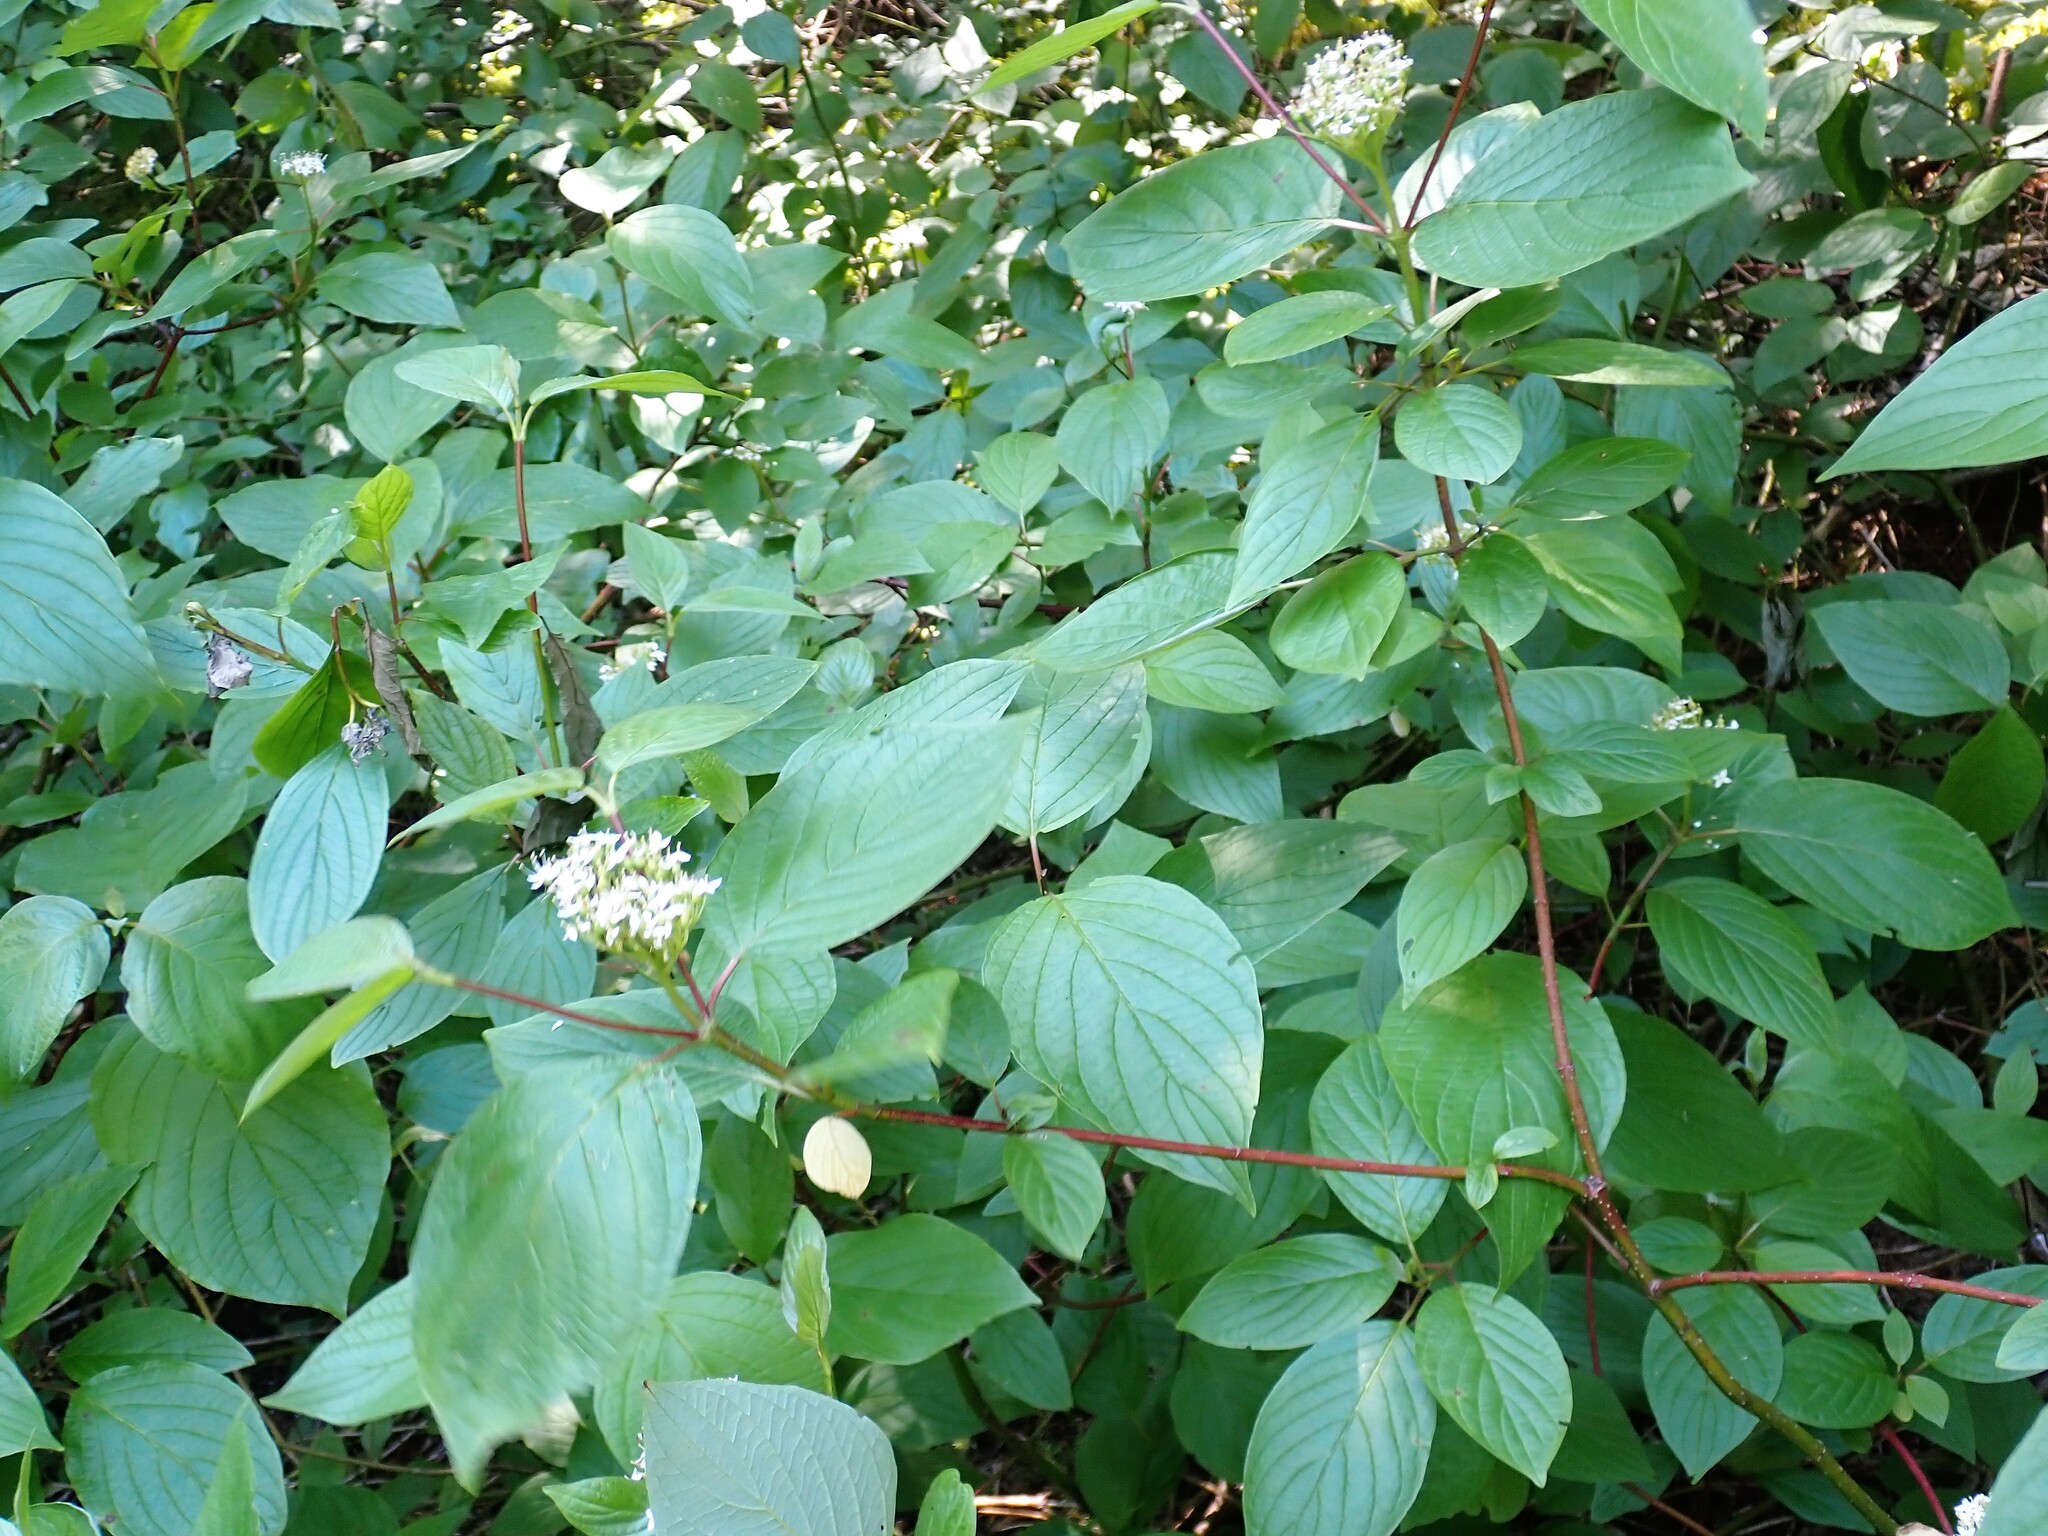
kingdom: Plantae
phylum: Tracheophyta
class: Magnoliopsida
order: Cornales
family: Cornaceae
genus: Cornus
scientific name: Cornus sericea
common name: Red-osier dogwood
